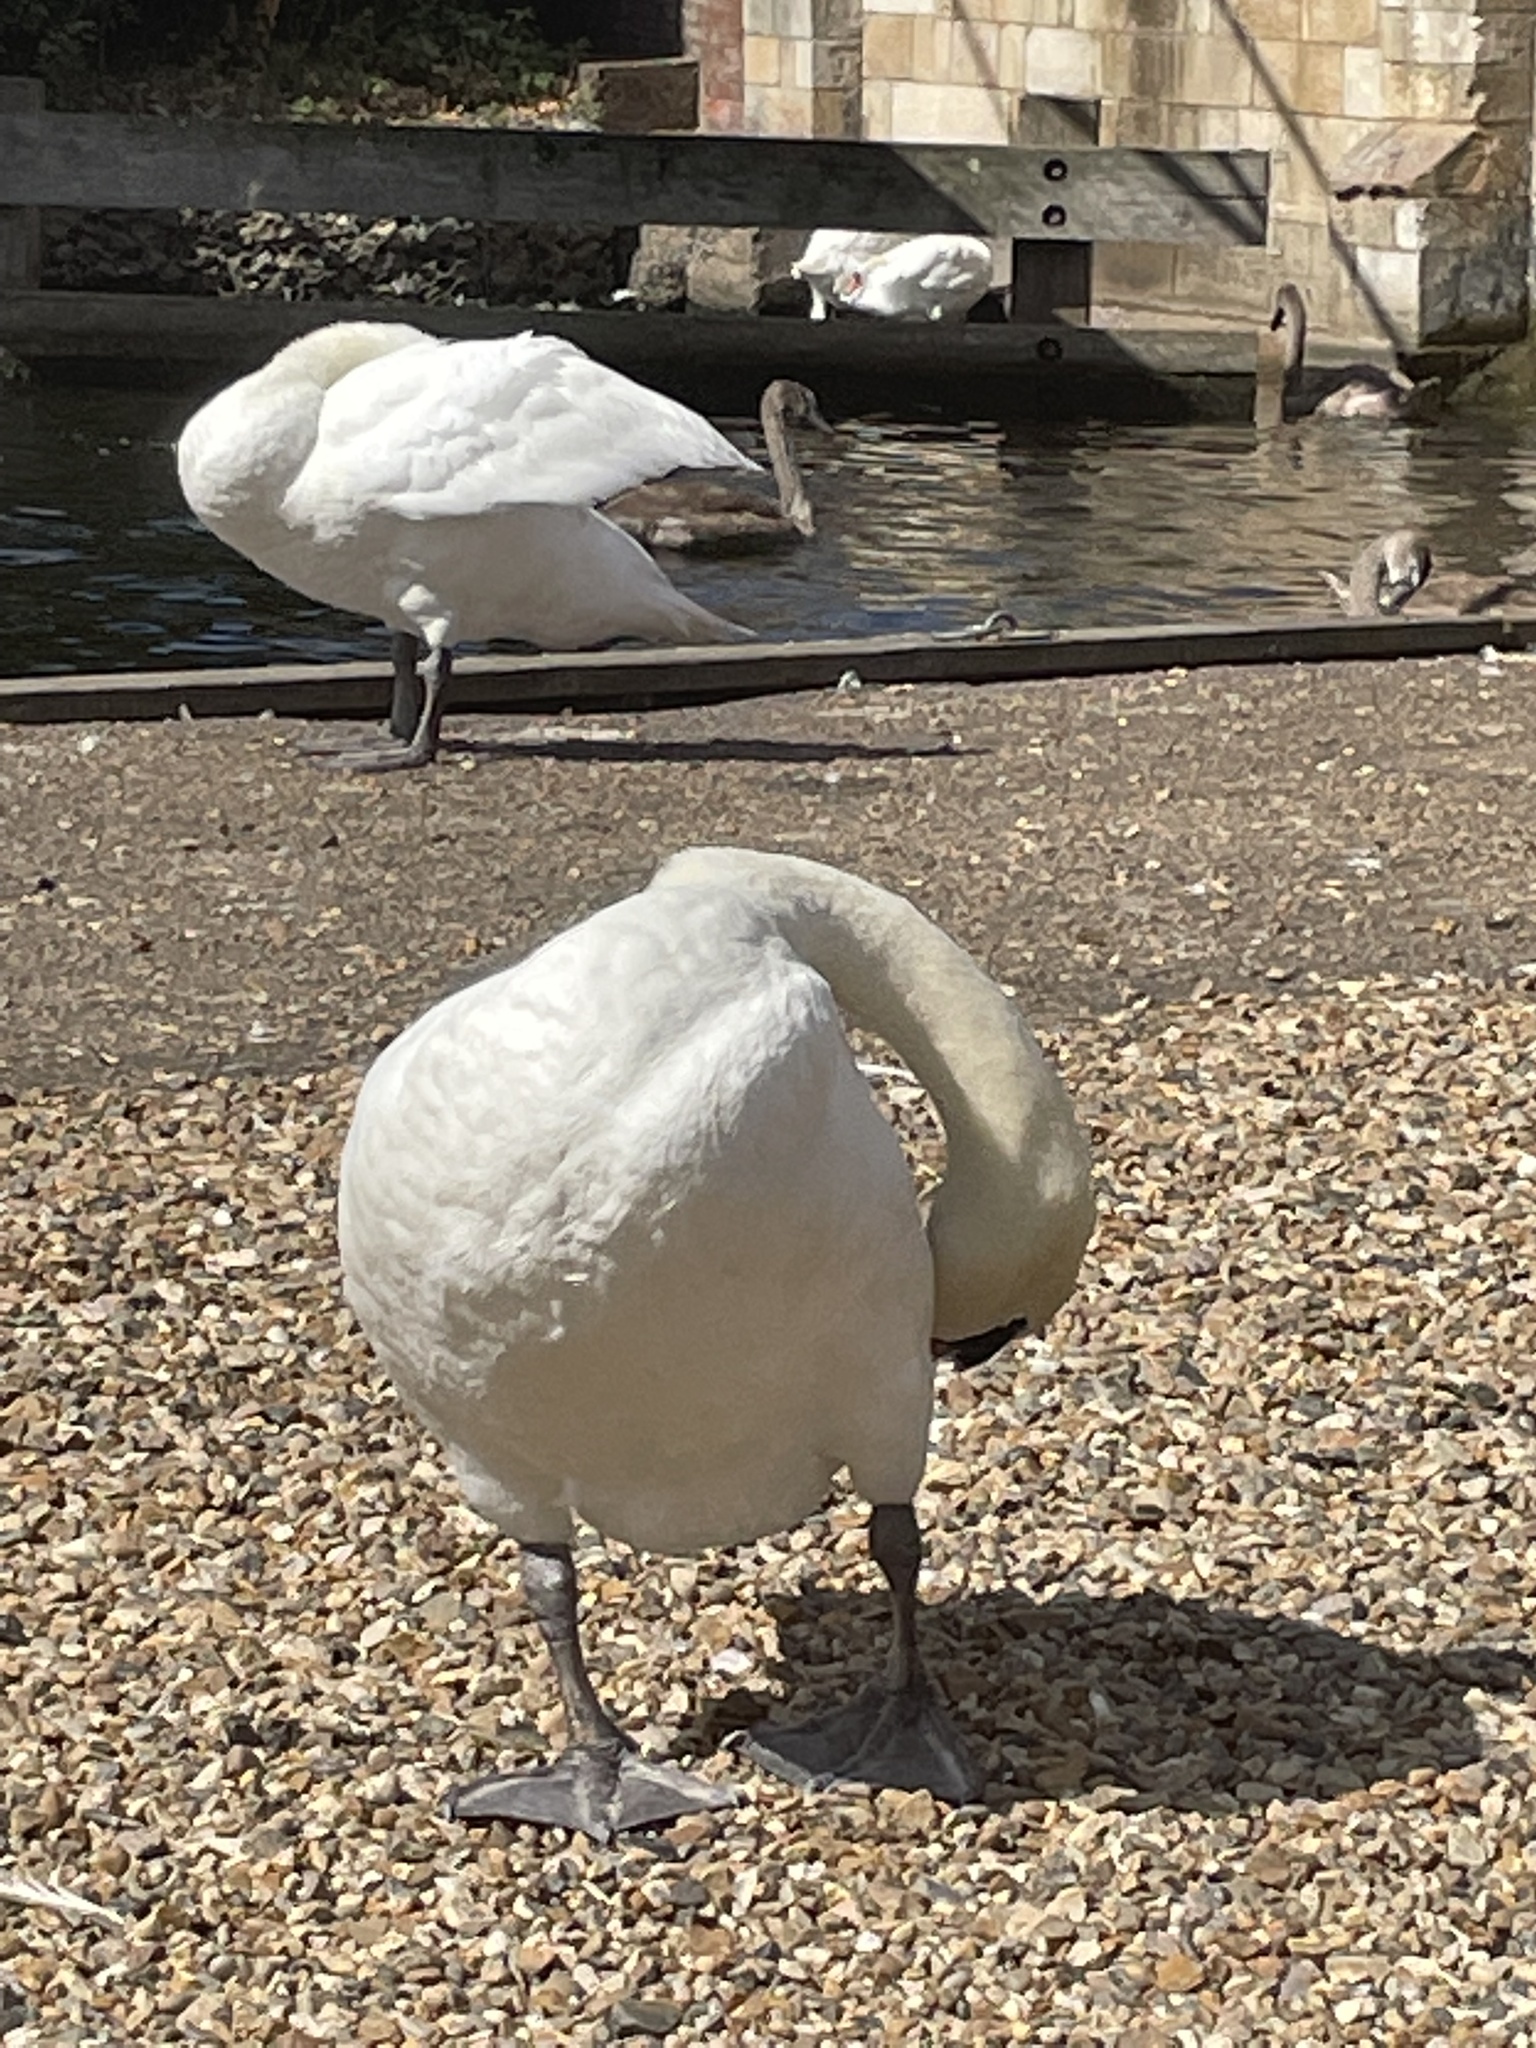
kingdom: Animalia
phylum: Chordata
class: Aves
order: Anseriformes
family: Anatidae
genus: Cygnus
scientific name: Cygnus olor
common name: Mute swan
